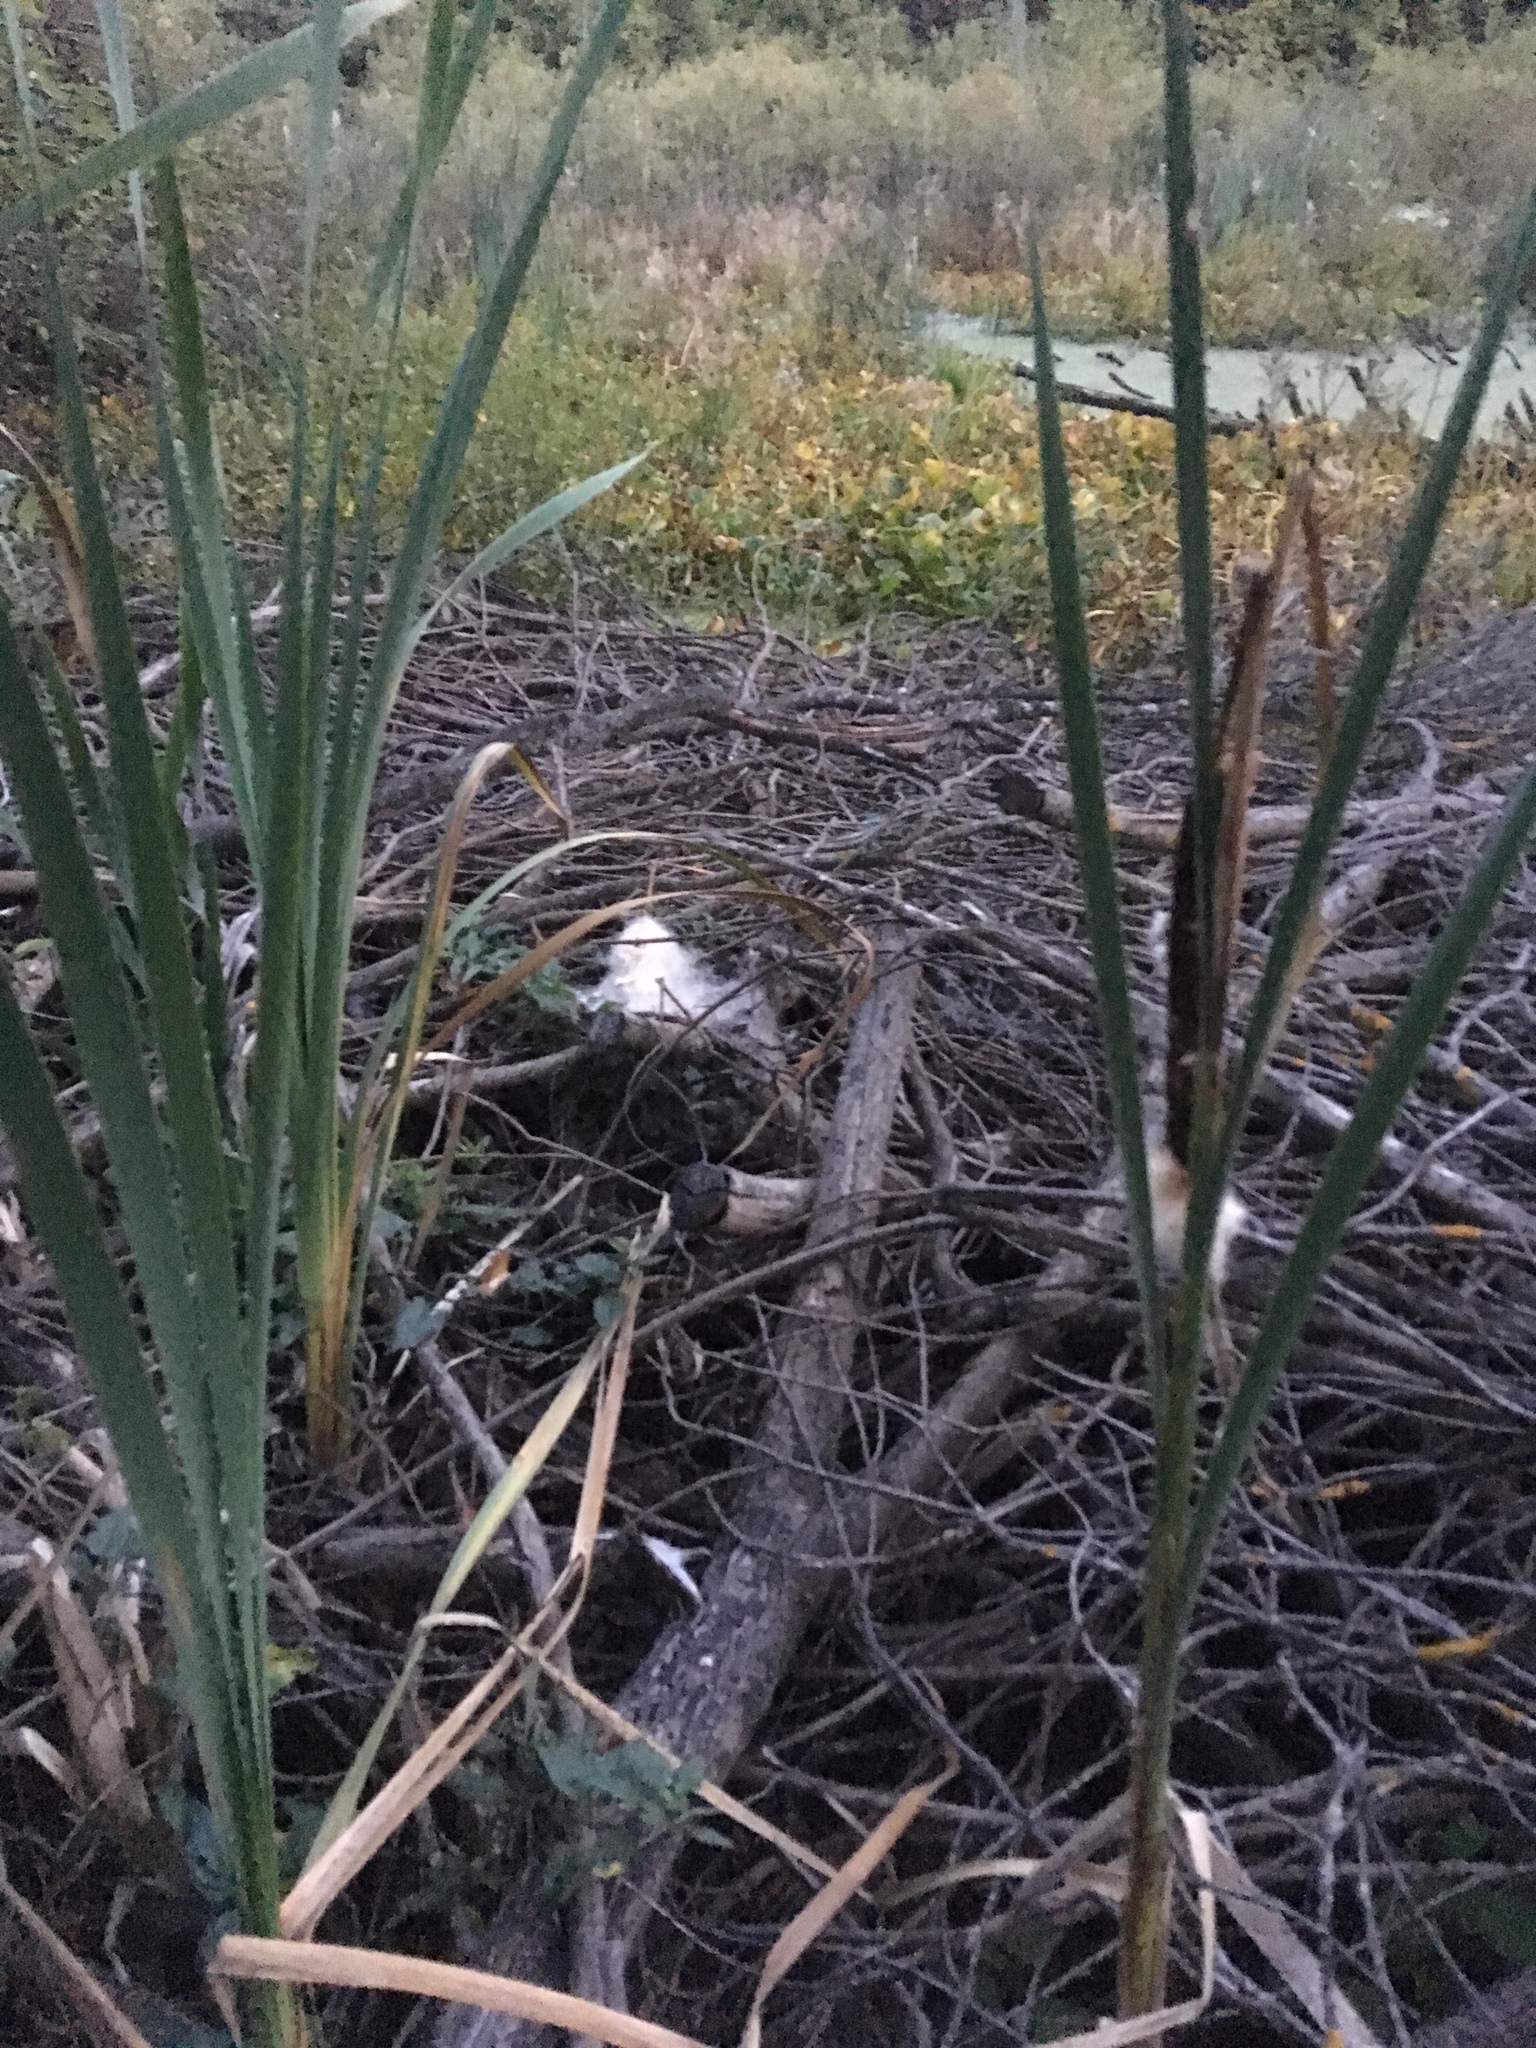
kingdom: Plantae
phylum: Tracheophyta
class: Liliopsida
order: Poales
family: Typhaceae
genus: Typha
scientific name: Typha latifolia
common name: Broadleaf cattail
